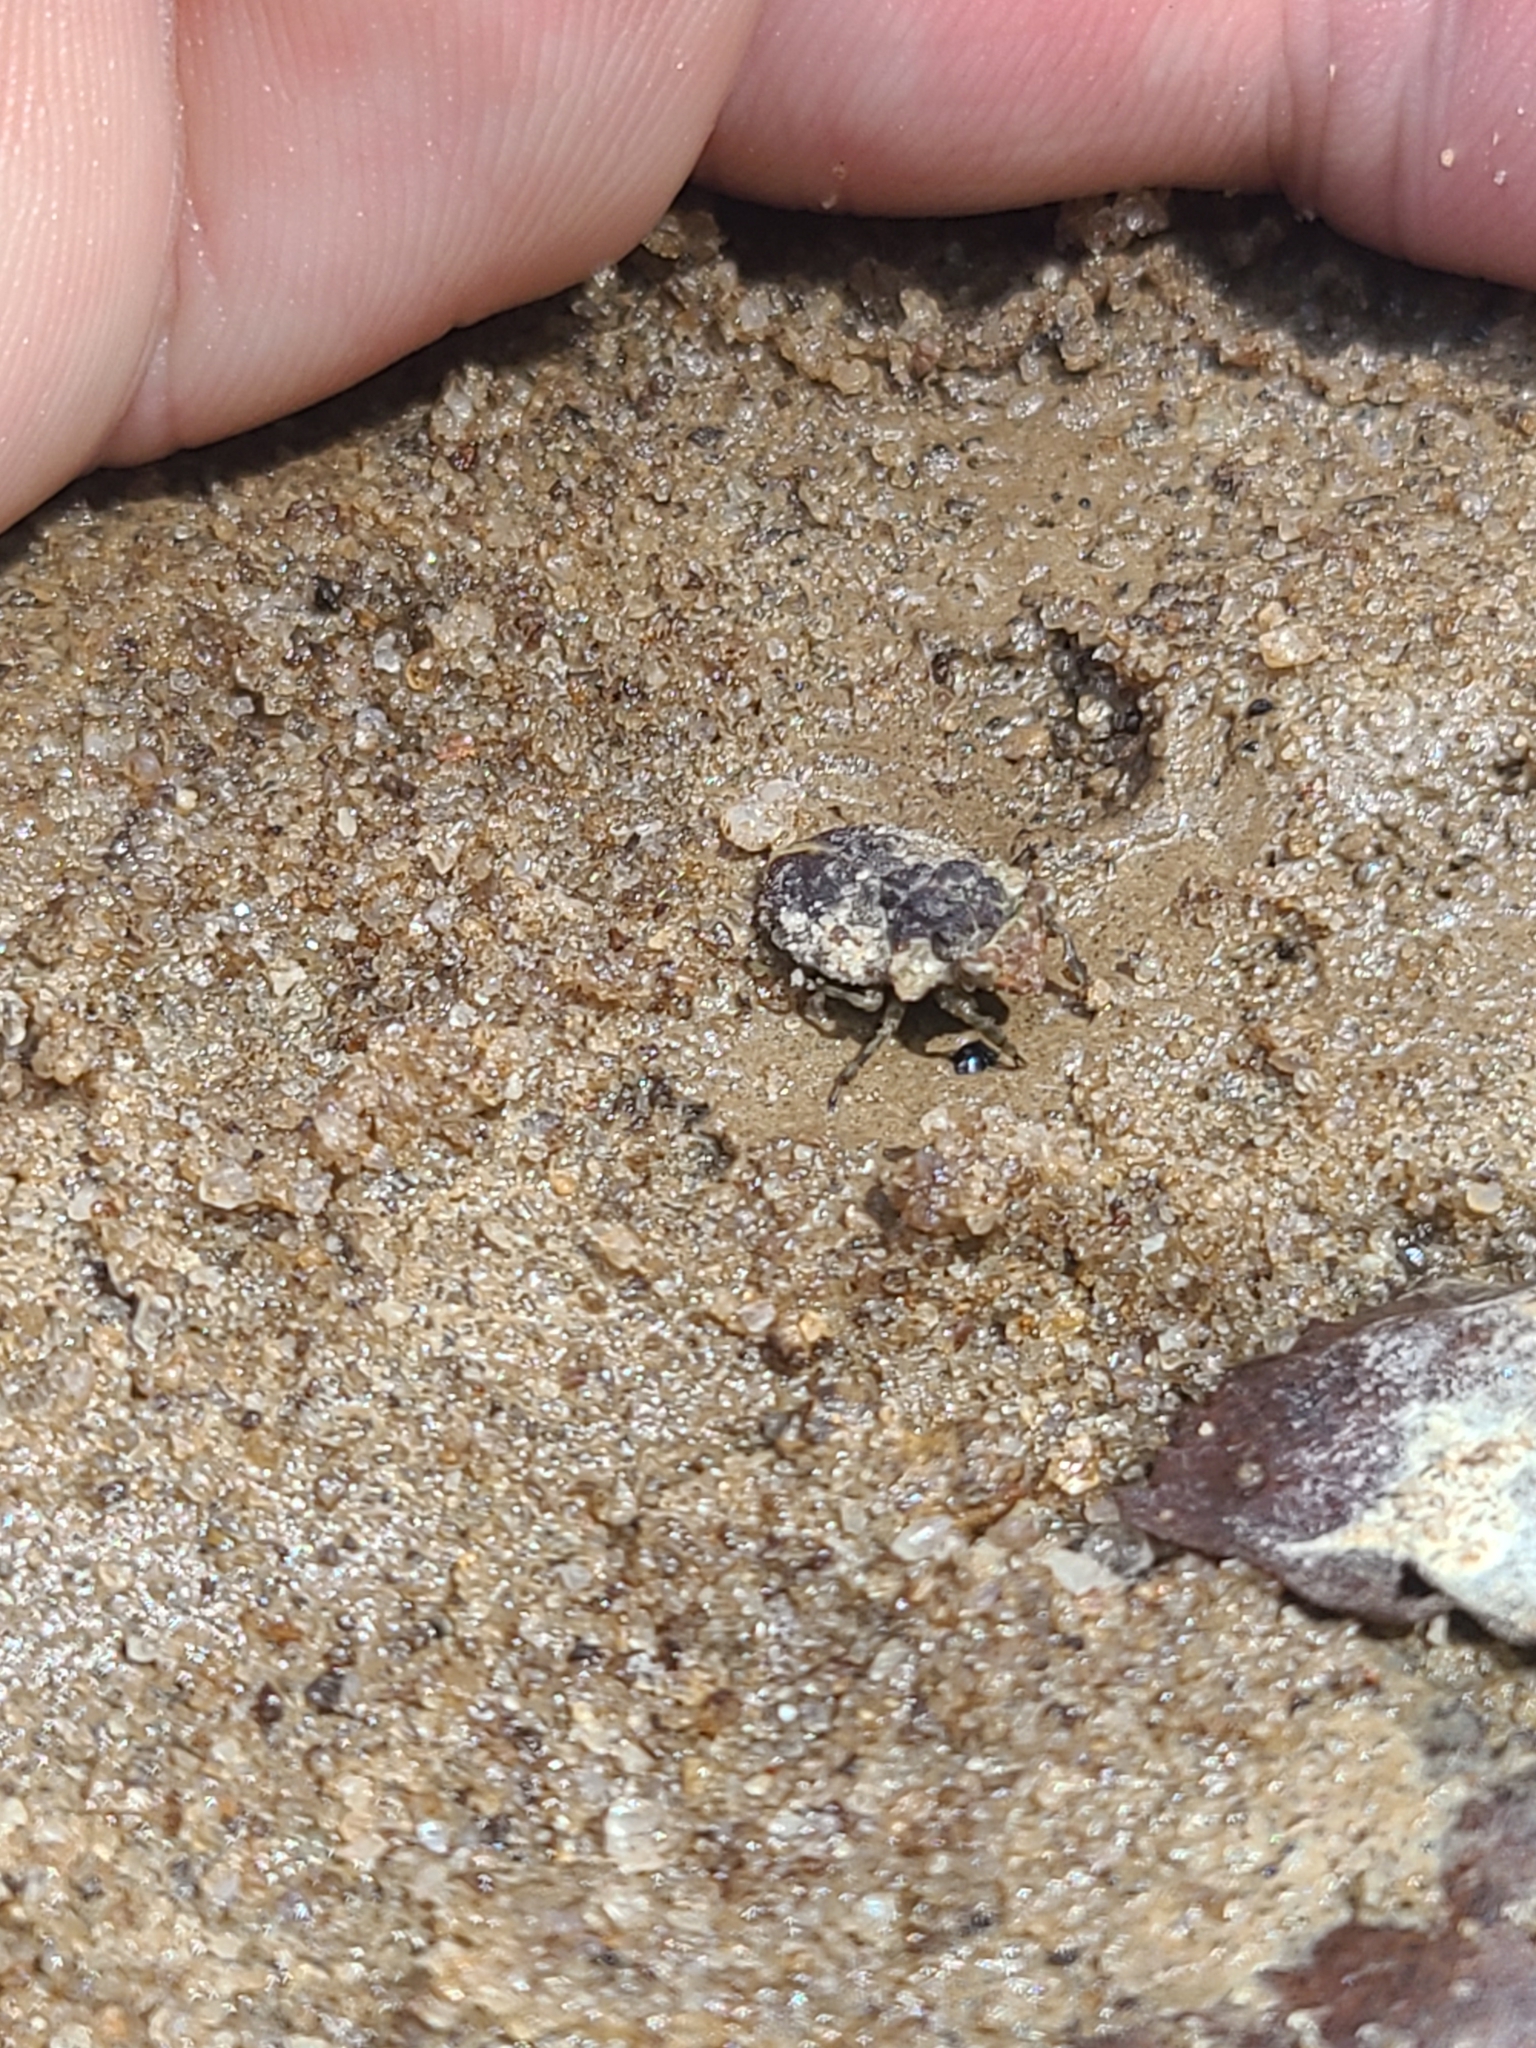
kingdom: Animalia
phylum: Arthropoda
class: Insecta
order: Hemiptera
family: Gelastocoridae
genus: Gelastocoris
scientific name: Gelastocoris oculatus
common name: Toad bug
